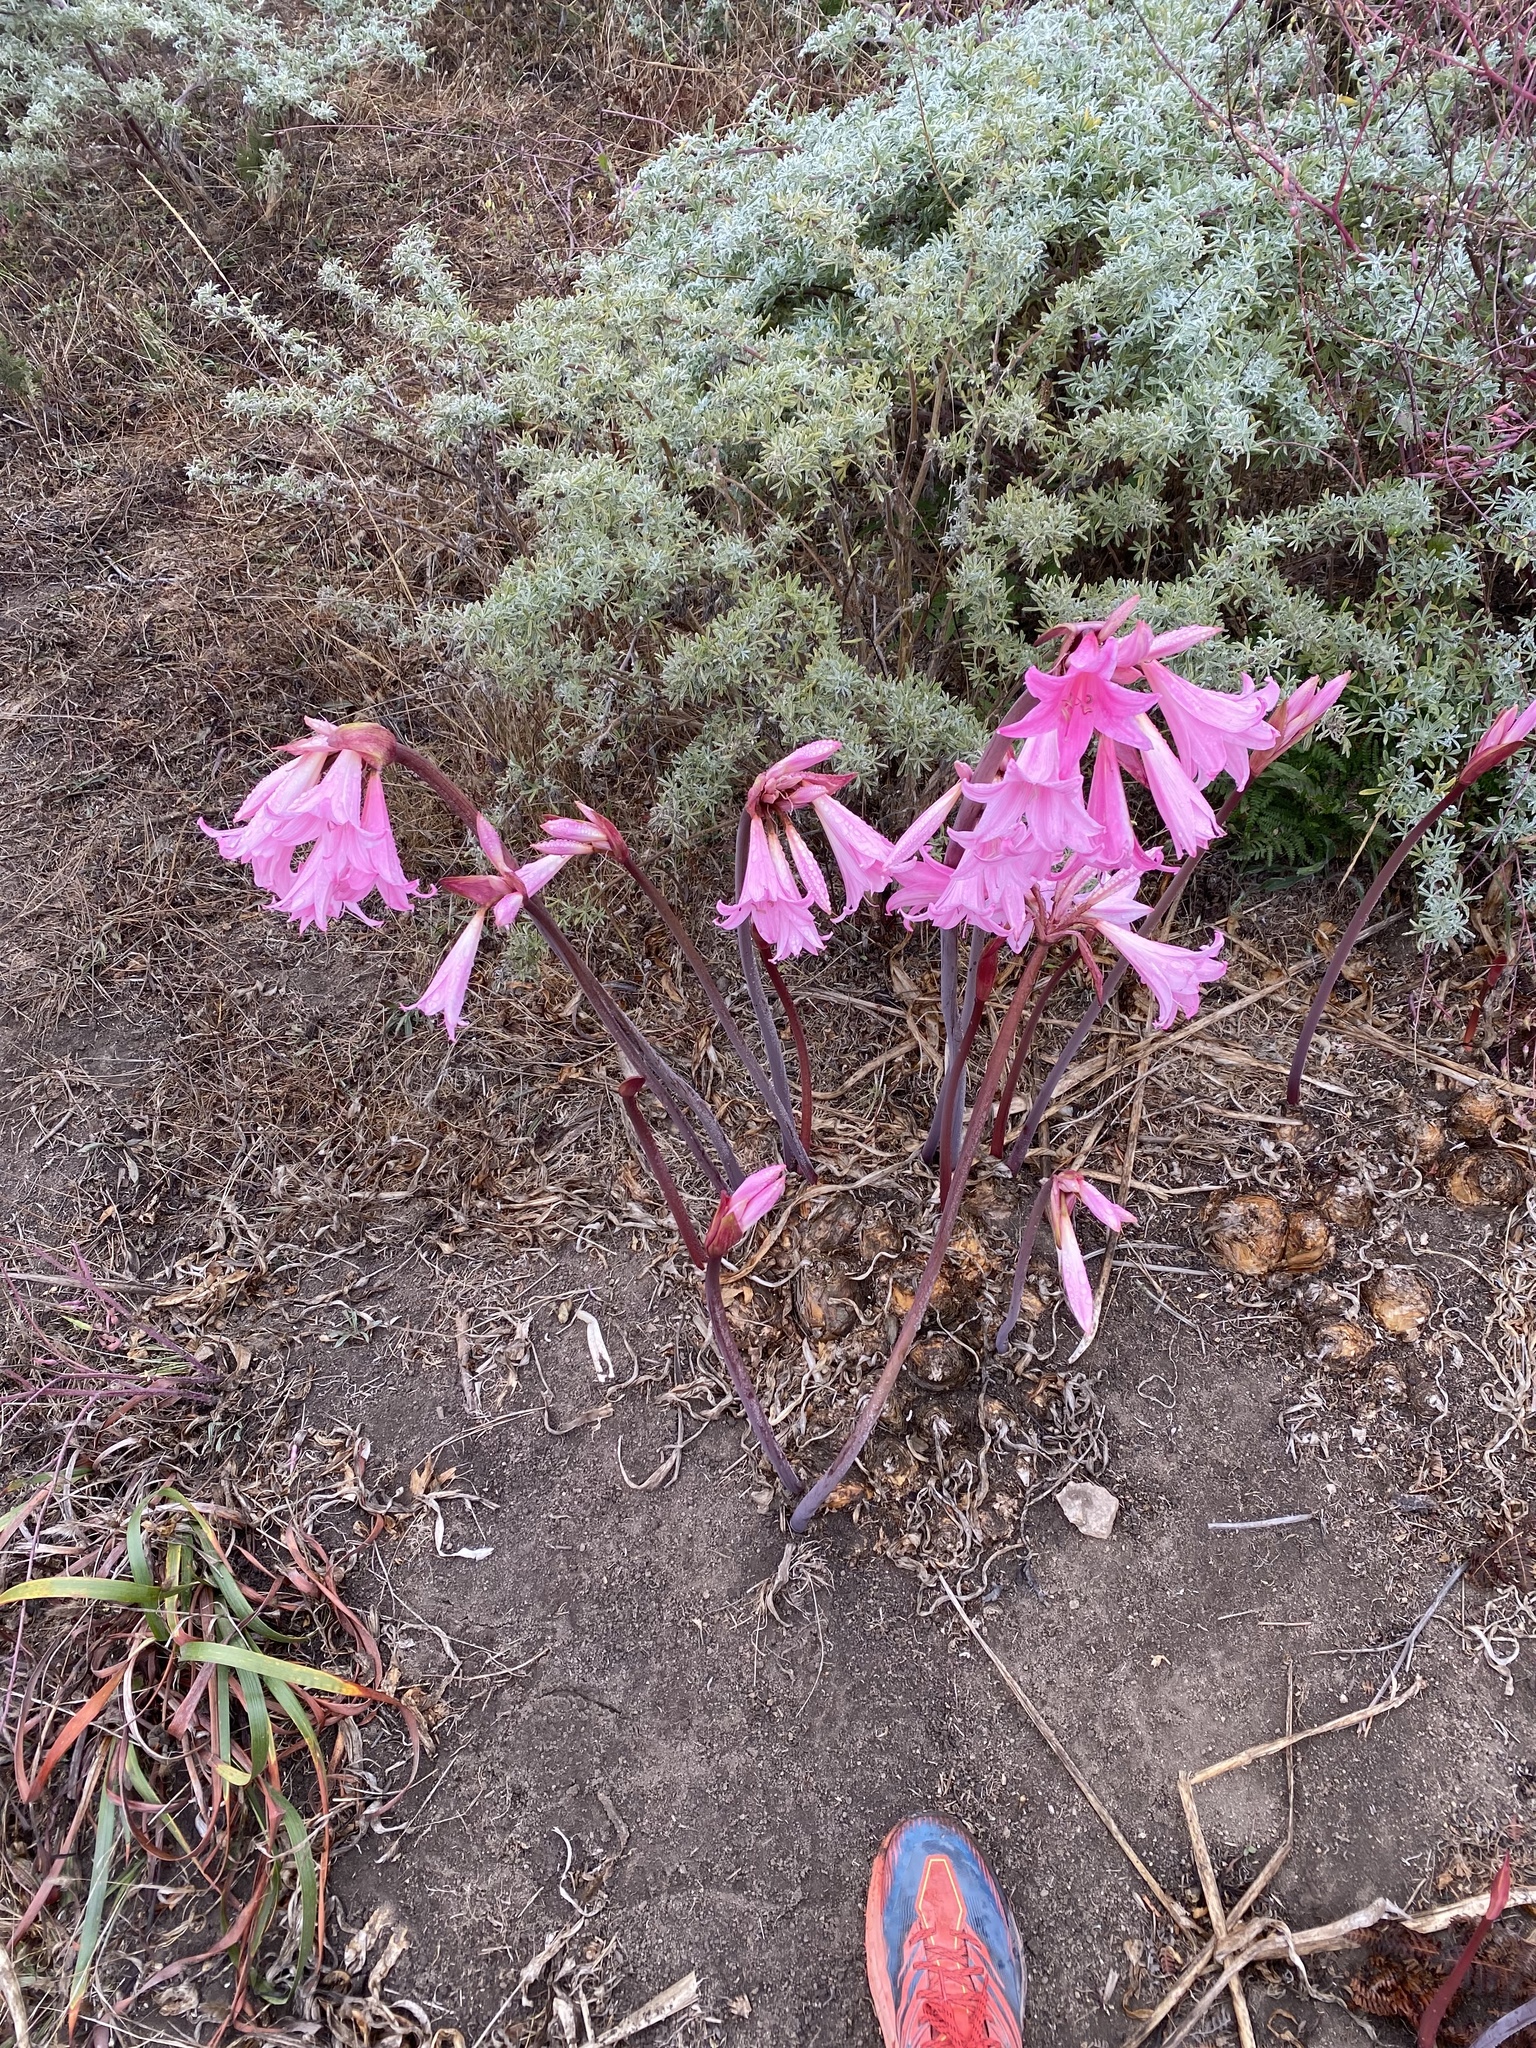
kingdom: Plantae
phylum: Tracheophyta
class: Liliopsida
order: Asparagales
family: Amaryllidaceae
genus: Amaryllis
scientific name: Amaryllis belladonna
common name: Jersey lily
